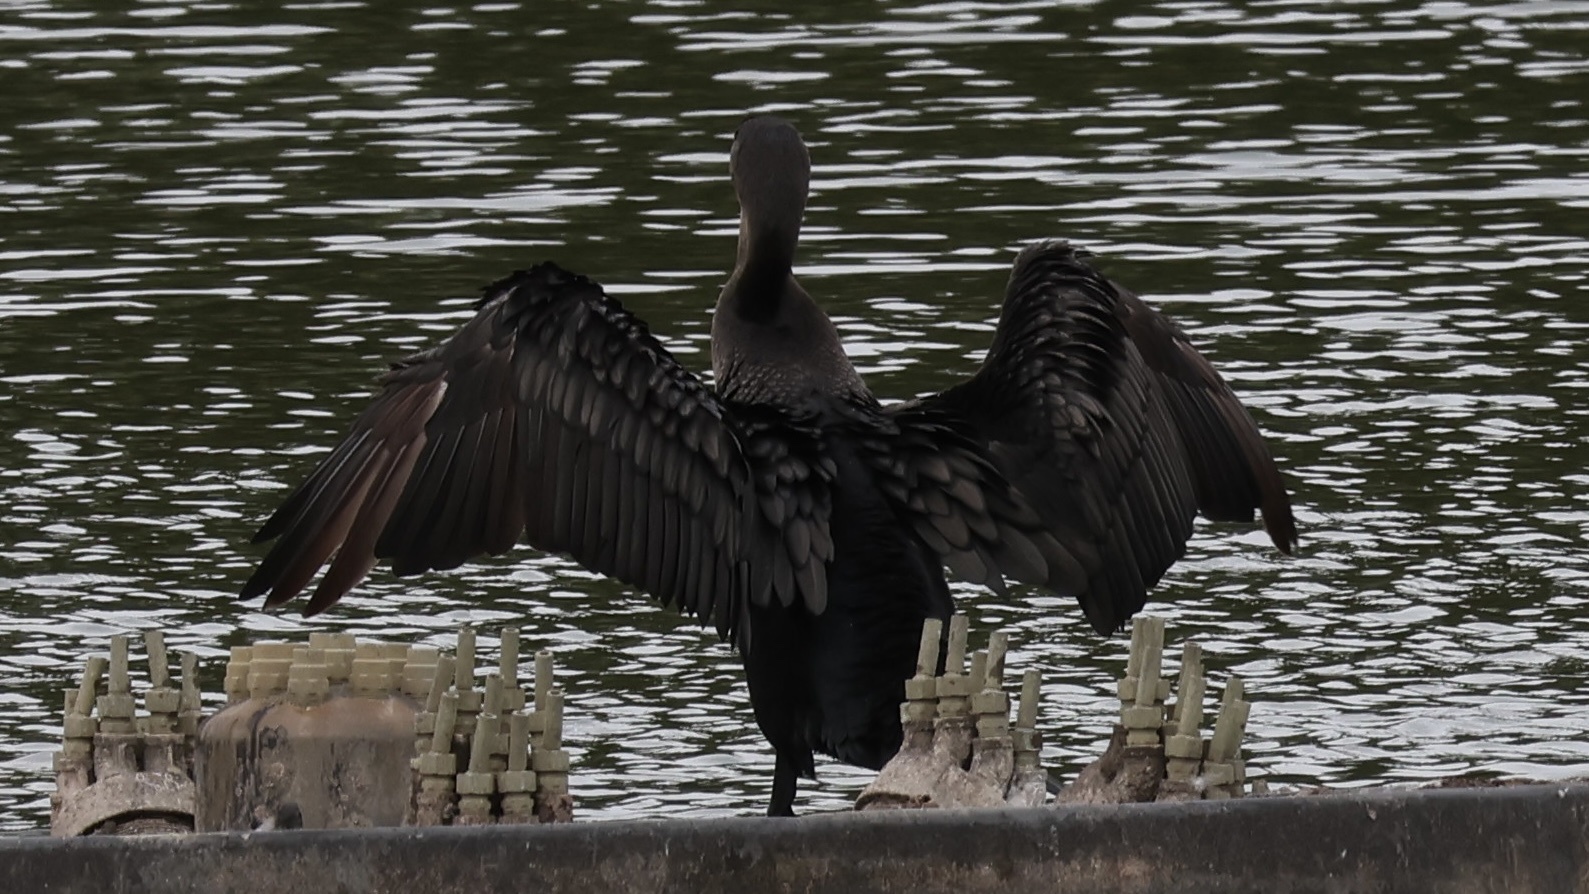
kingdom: Animalia
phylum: Chordata
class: Aves
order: Suliformes
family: Phalacrocoracidae
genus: Phalacrocorax
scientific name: Phalacrocorax auritus
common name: Double-crested cormorant
